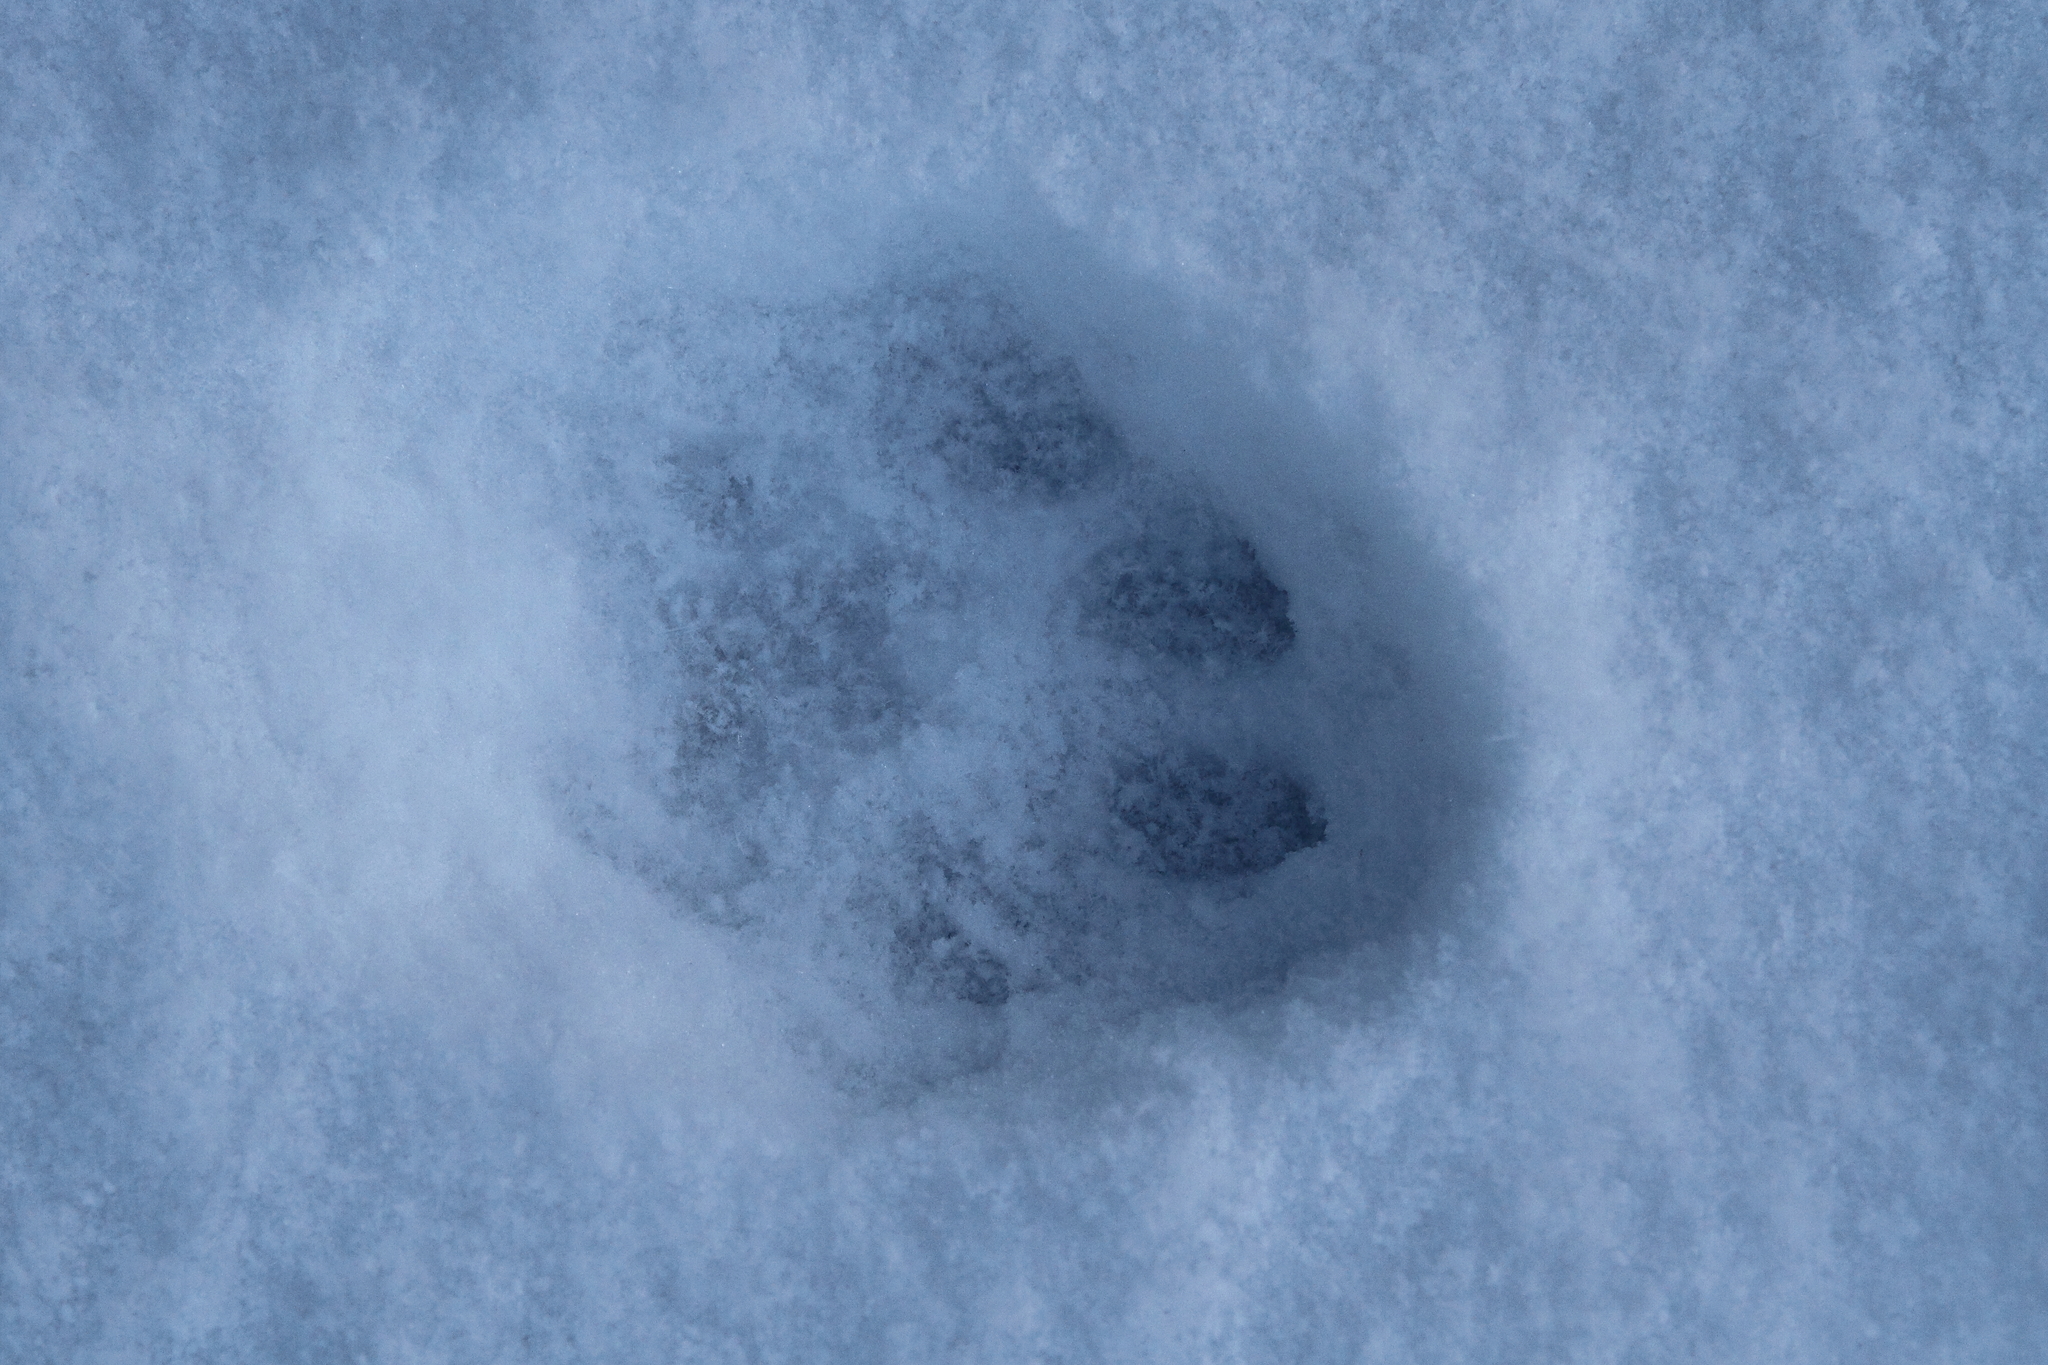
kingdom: Animalia
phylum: Chordata
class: Mammalia
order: Carnivora
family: Felidae
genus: Lynx
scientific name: Lynx lynx
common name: Eurasian lynx
